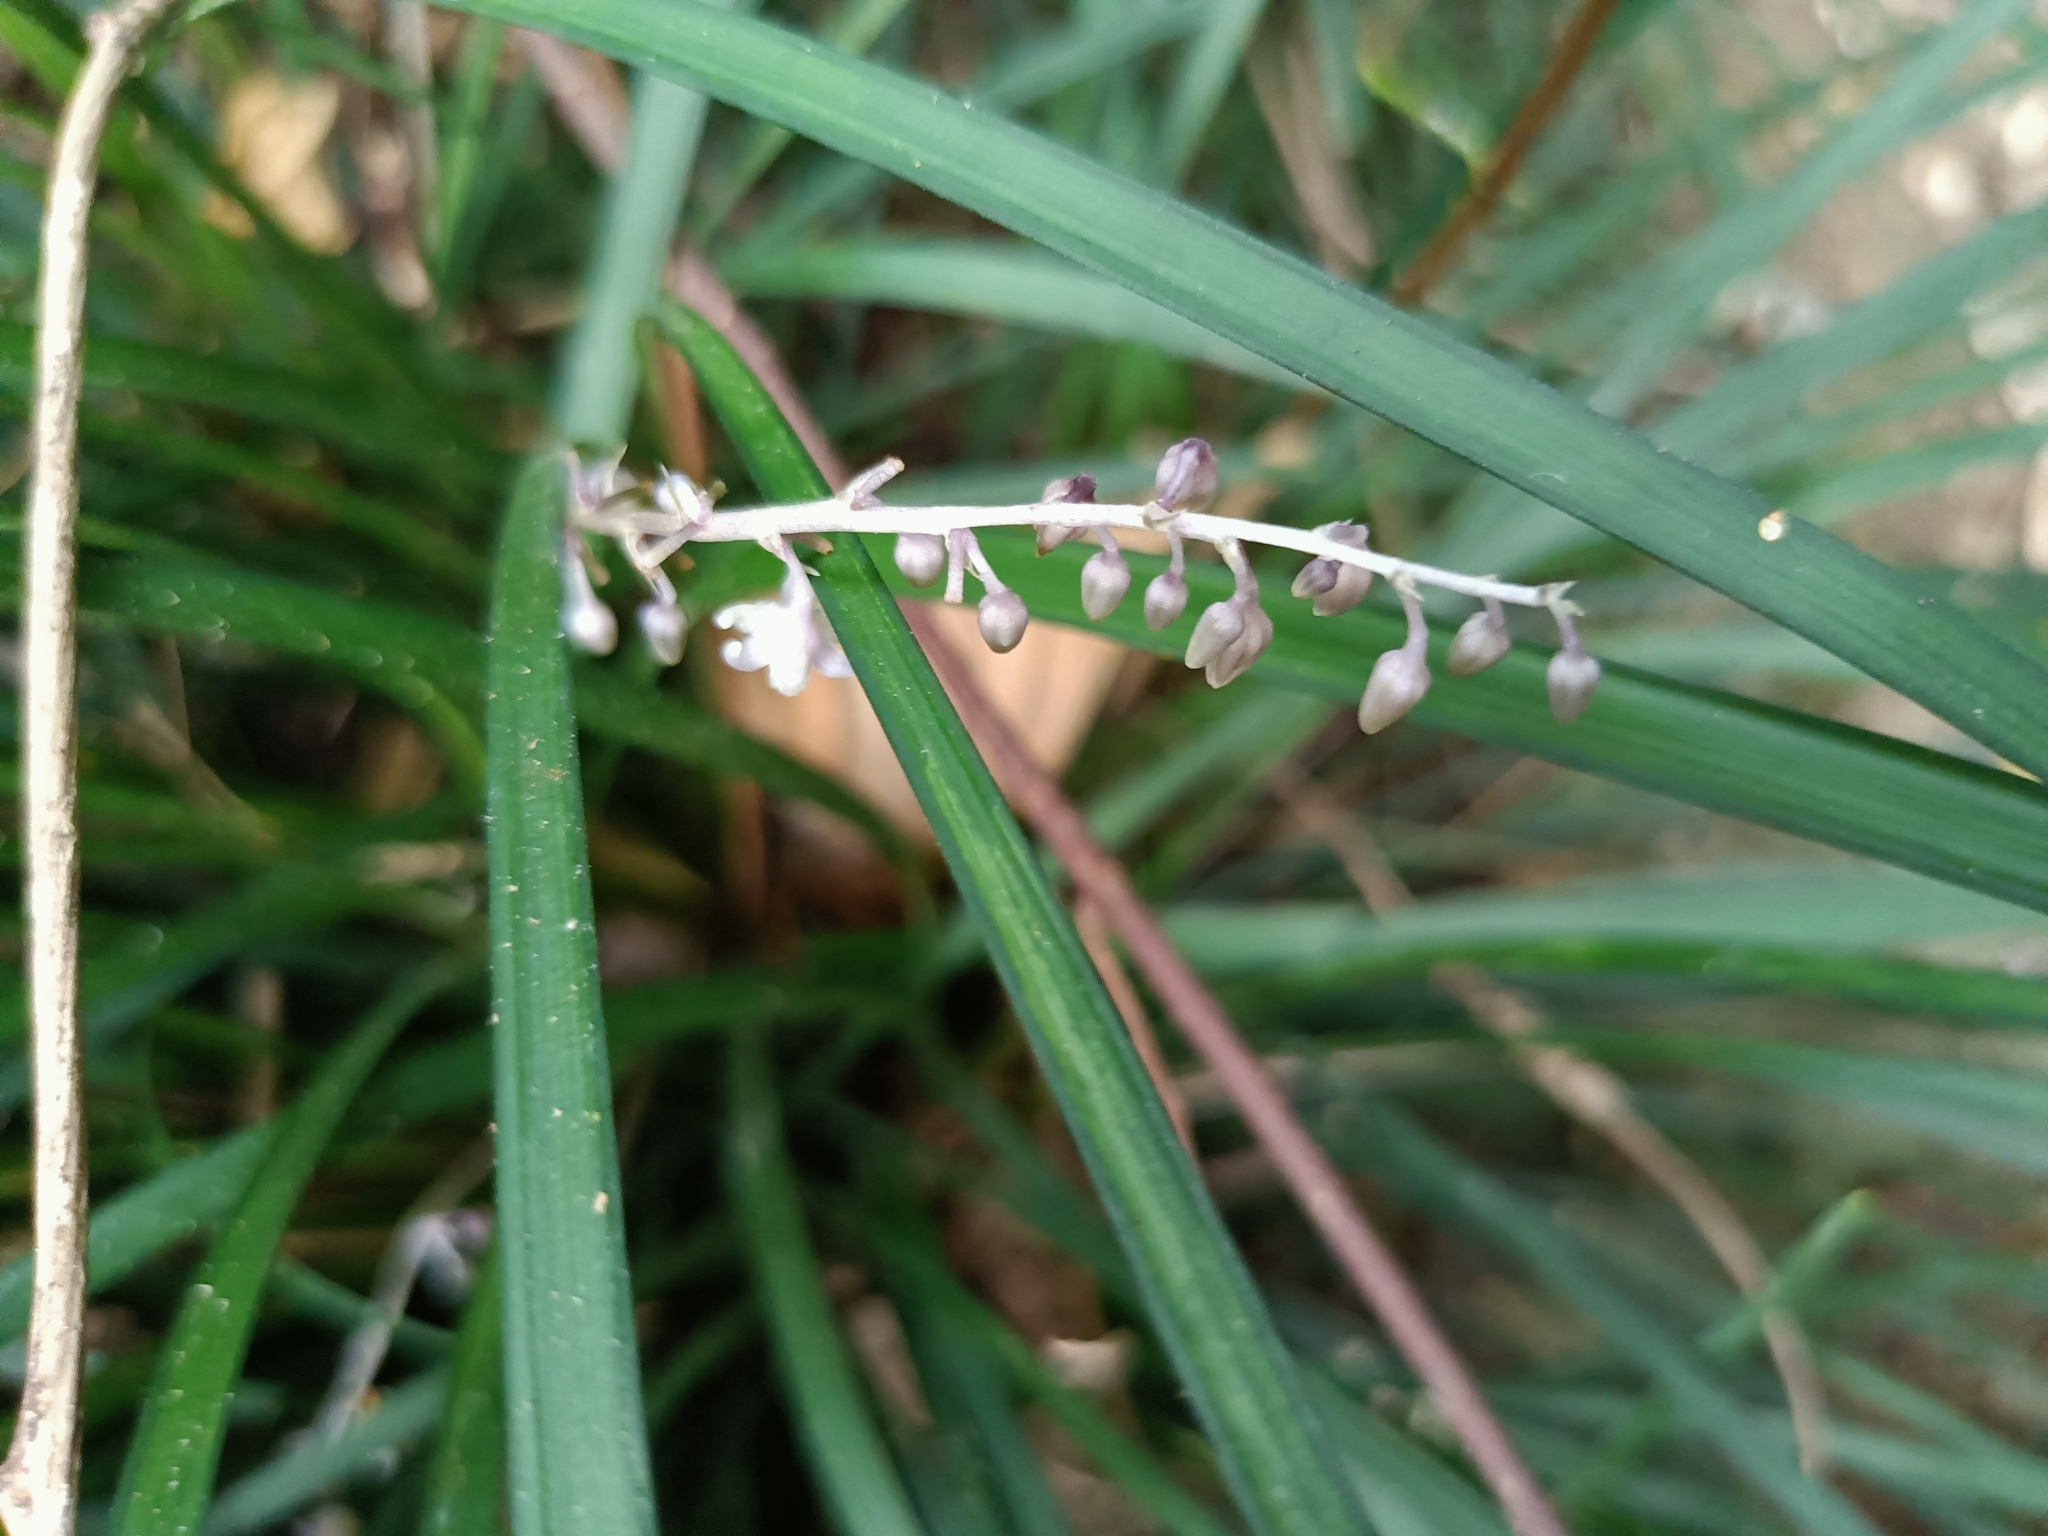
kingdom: Plantae
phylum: Tracheophyta
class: Liliopsida
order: Asparagales
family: Asparagaceae
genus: Ophiopogon
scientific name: Ophiopogon reversus
